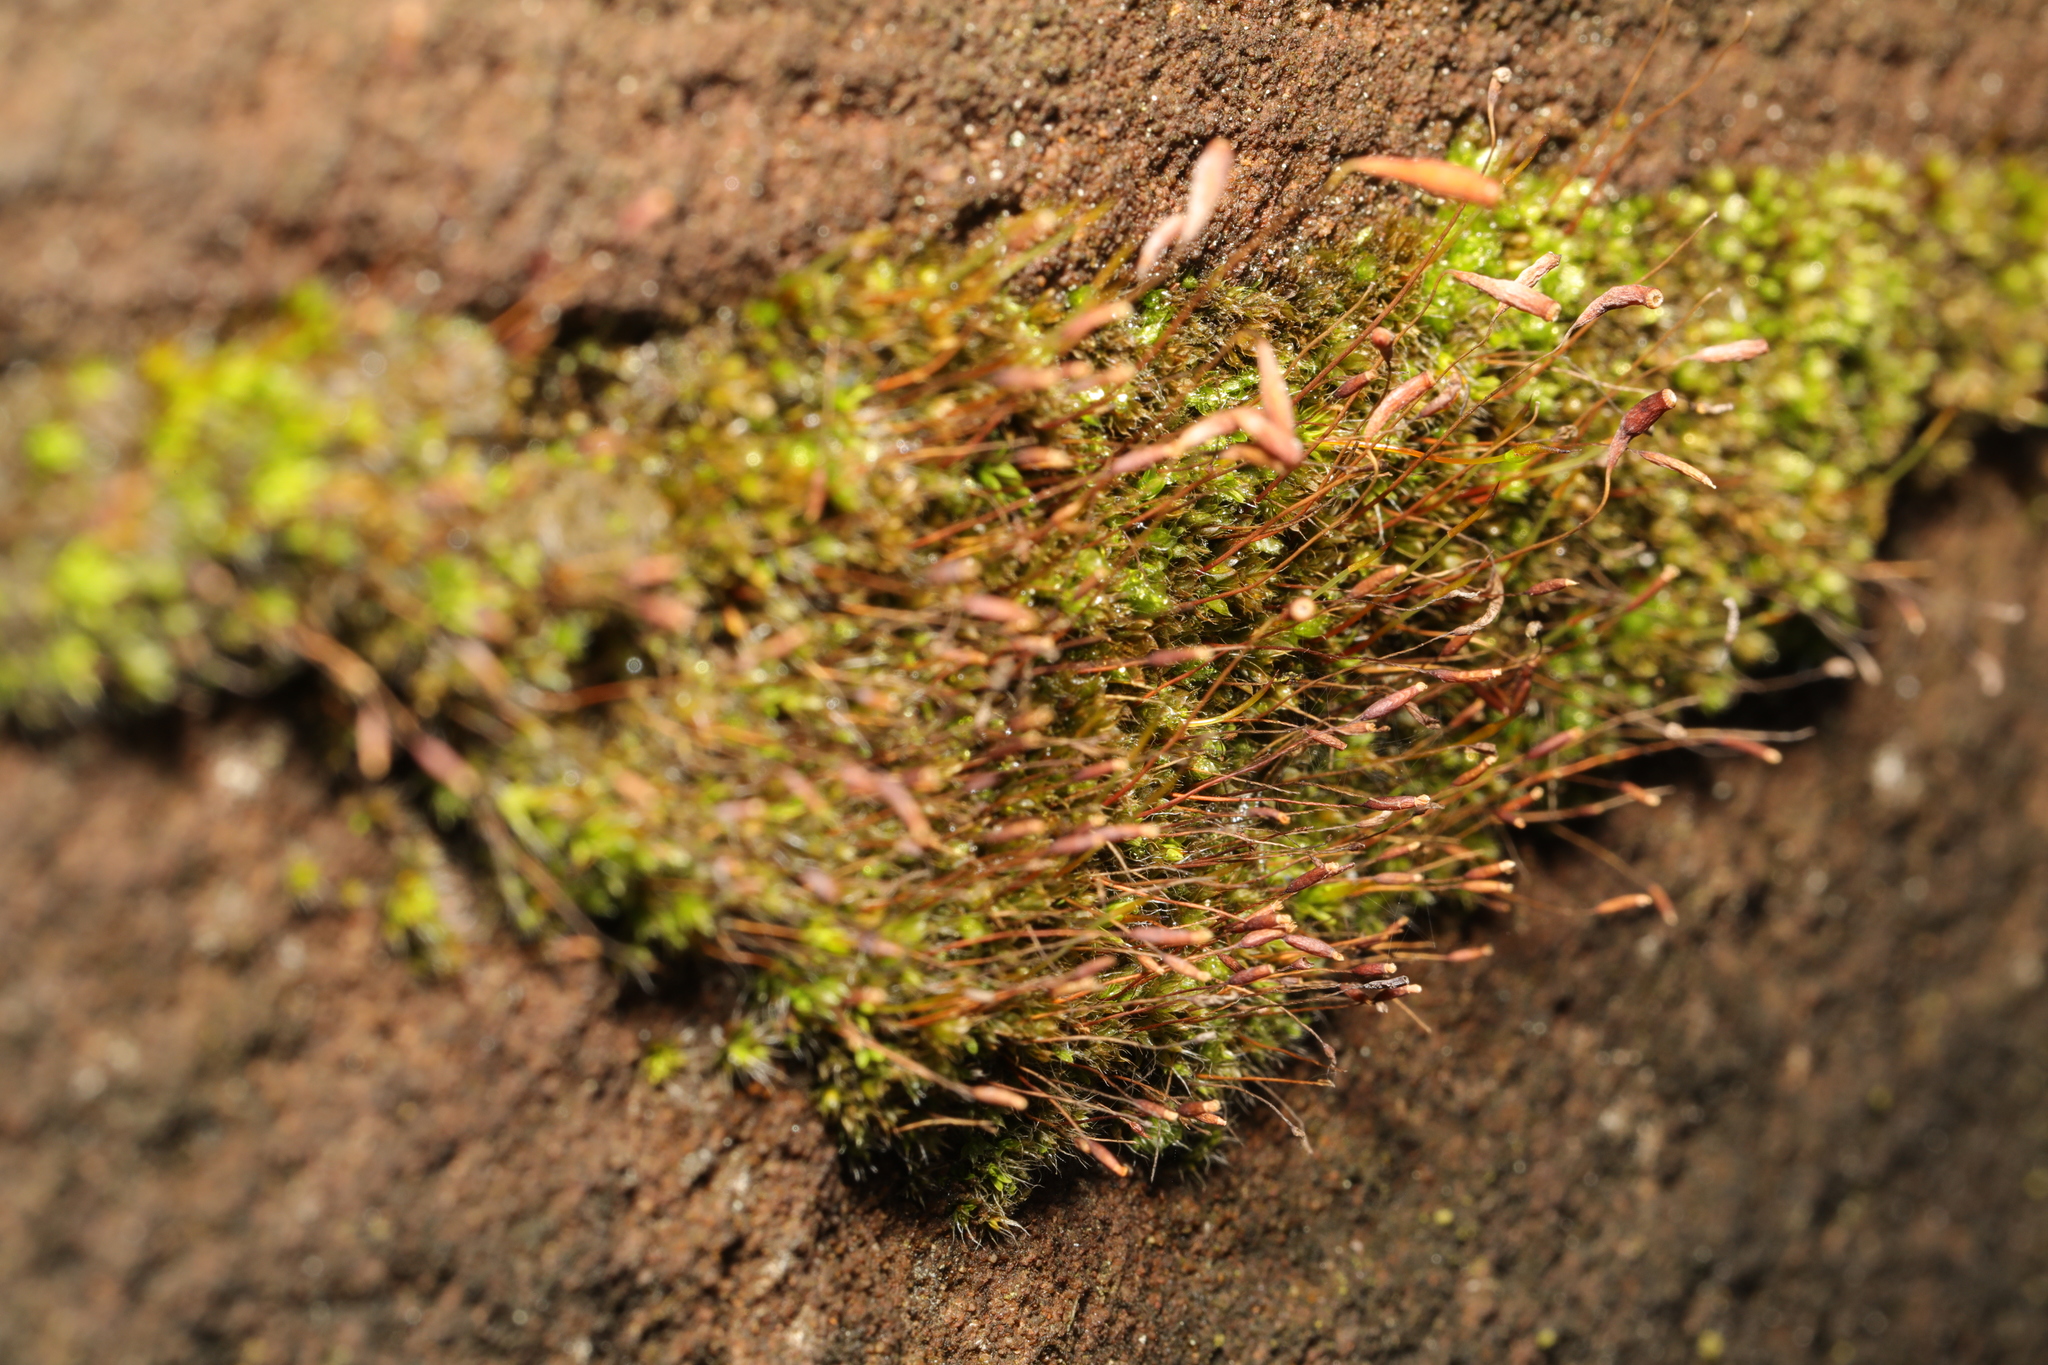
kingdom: Plantae
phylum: Bryophyta
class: Bryopsida
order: Pottiales
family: Pottiaceae
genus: Tortula
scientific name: Tortula muralis
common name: Wall screw-moss
